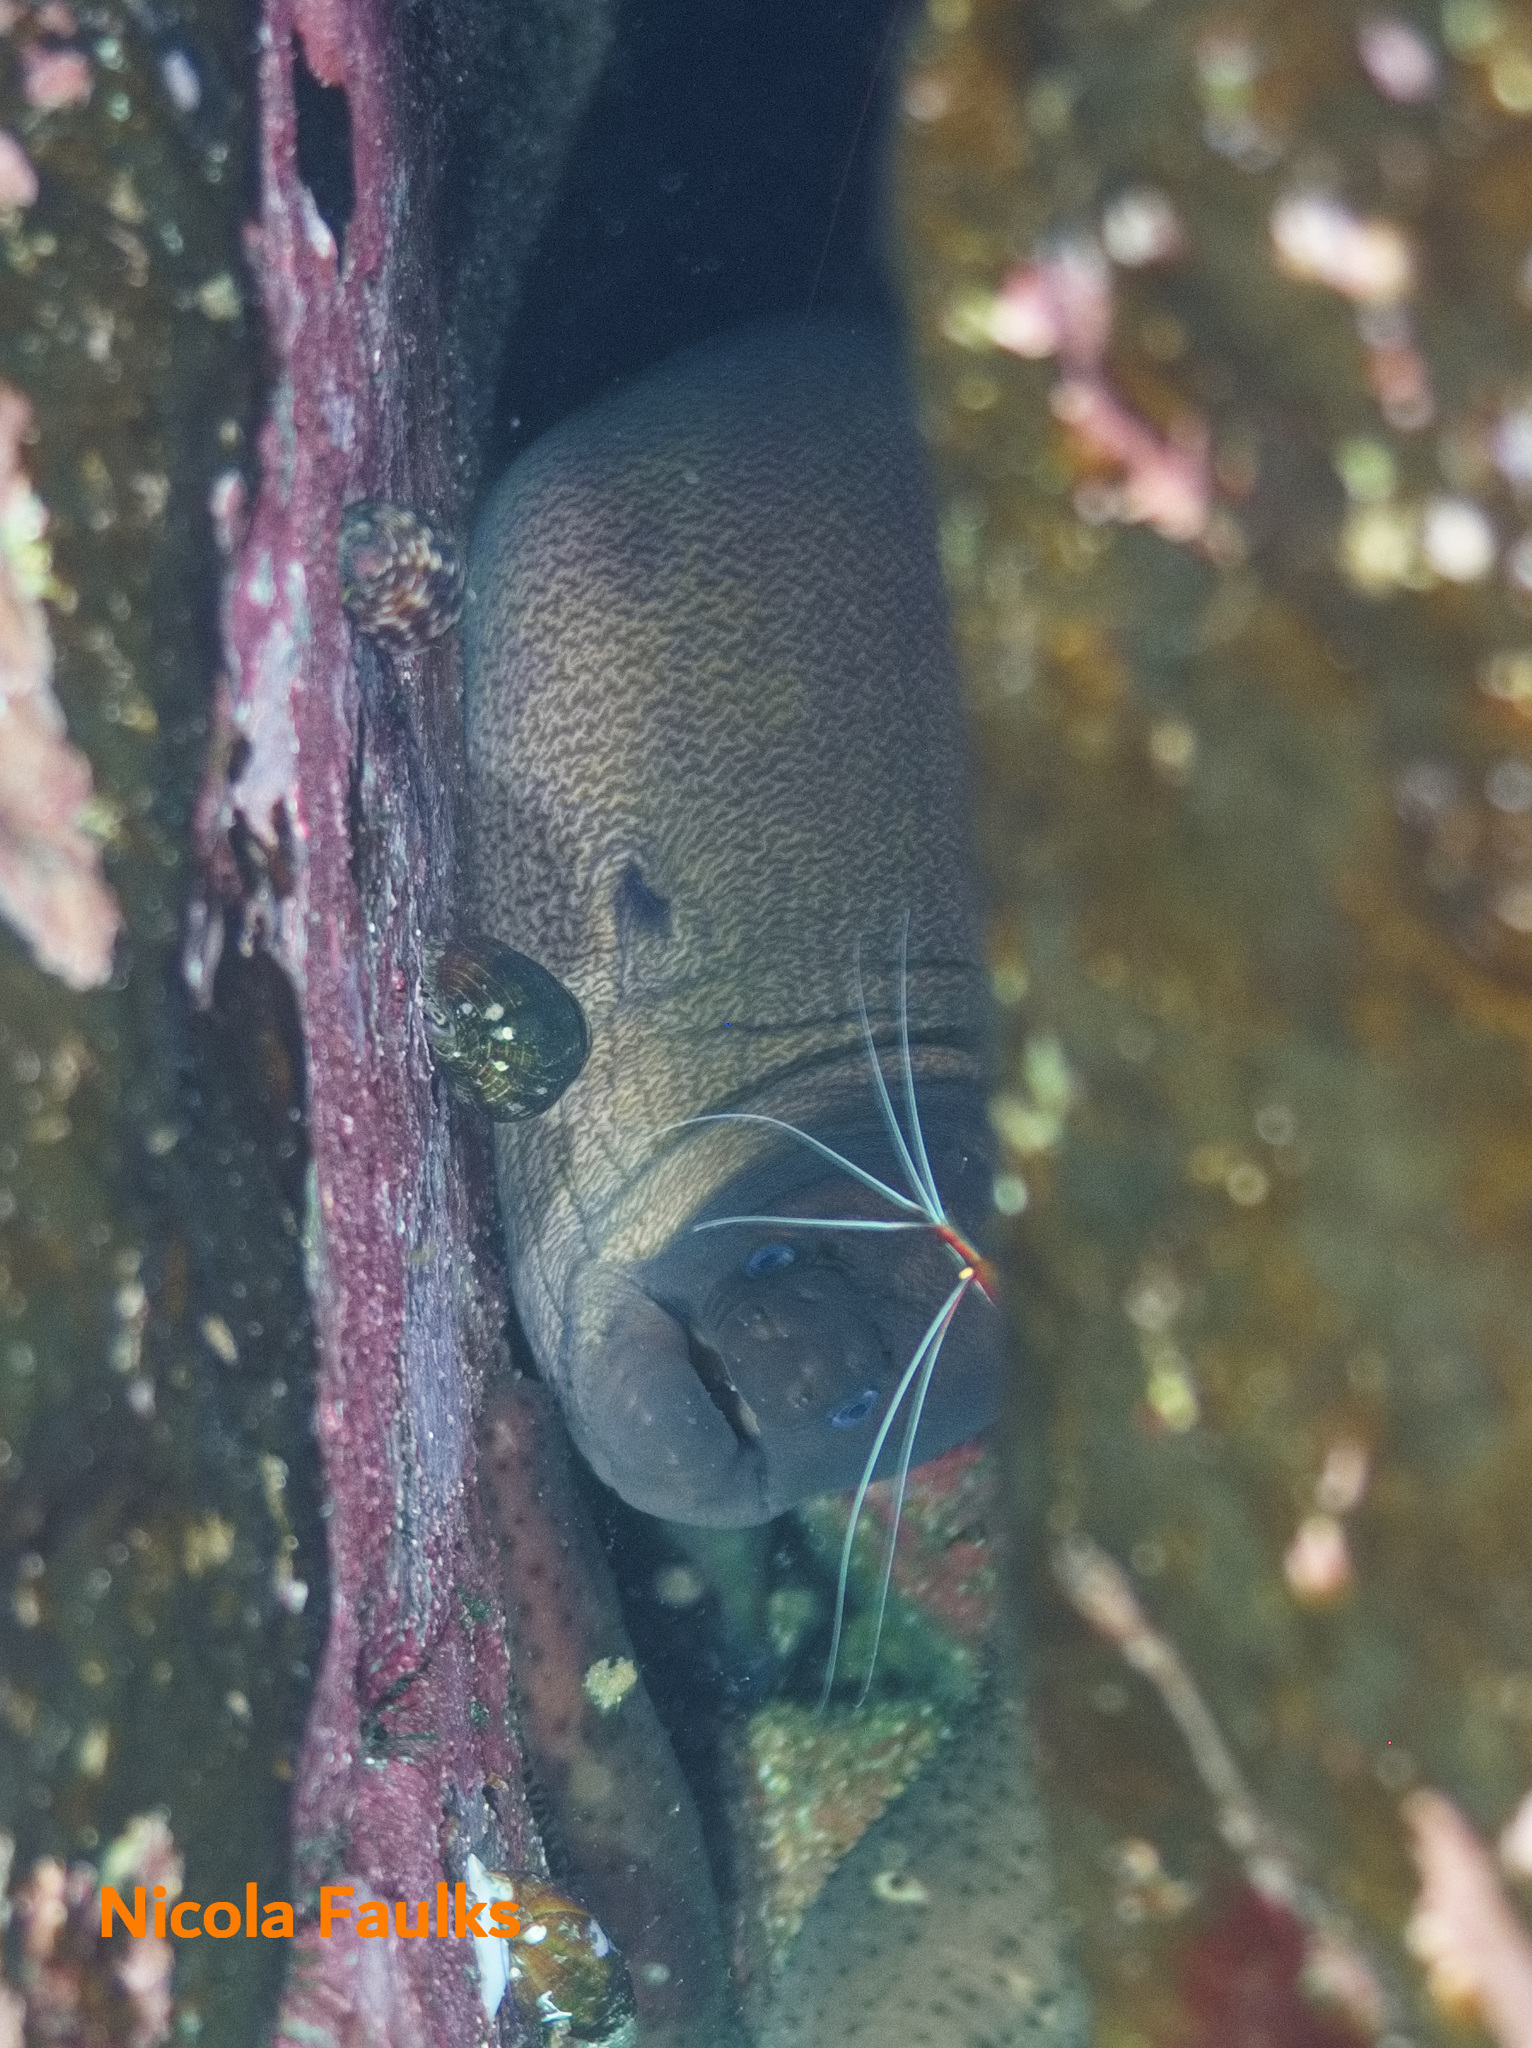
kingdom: Animalia
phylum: Chordata
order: Anguilliformes
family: Muraenidae
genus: Gymnothorax
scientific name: Gymnothorax unicolor
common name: Brown moray
